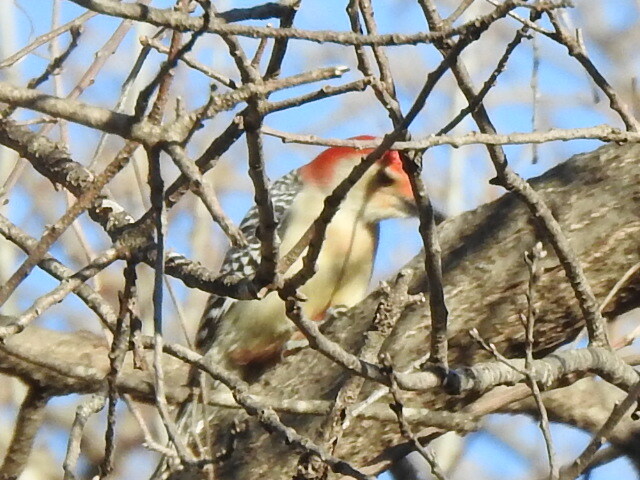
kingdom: Animalia
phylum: Chordata
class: Aves
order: Piciformes
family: Picidae
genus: Melanerpes
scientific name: Melanerpes carolinus
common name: Red-bellied woodpecker
